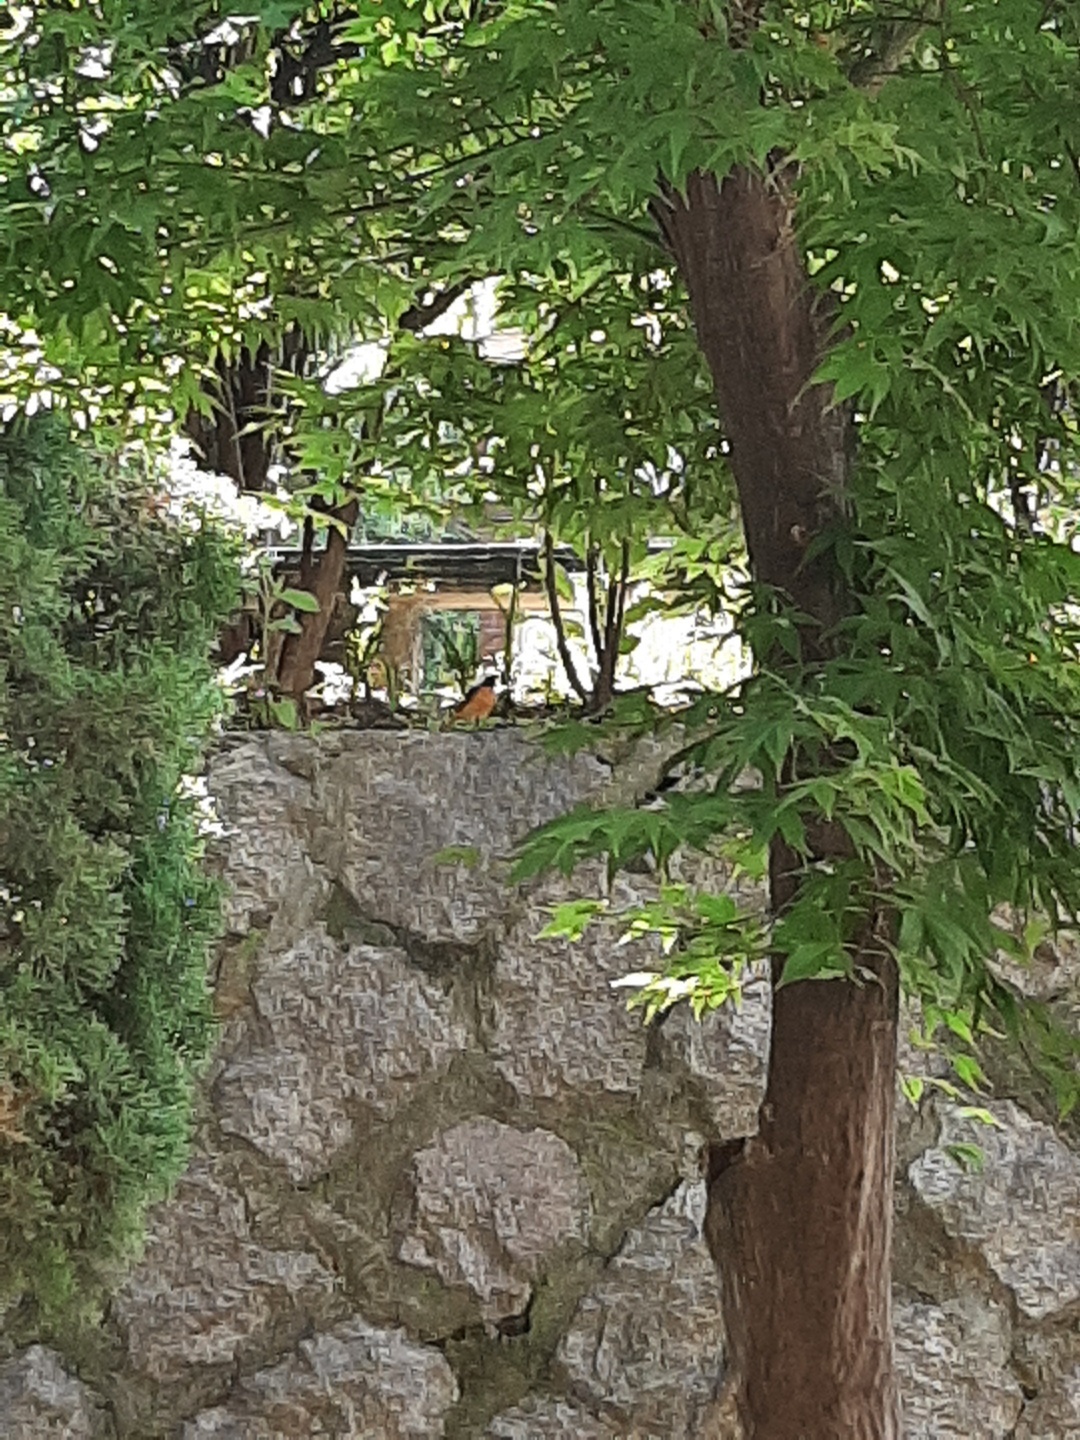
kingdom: Animalia
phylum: Chordata
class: Aves
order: Passeriformes
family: Muscicapidae
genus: Phoenicurus
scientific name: Phoenicurus auroreus
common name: Daurian redstart
